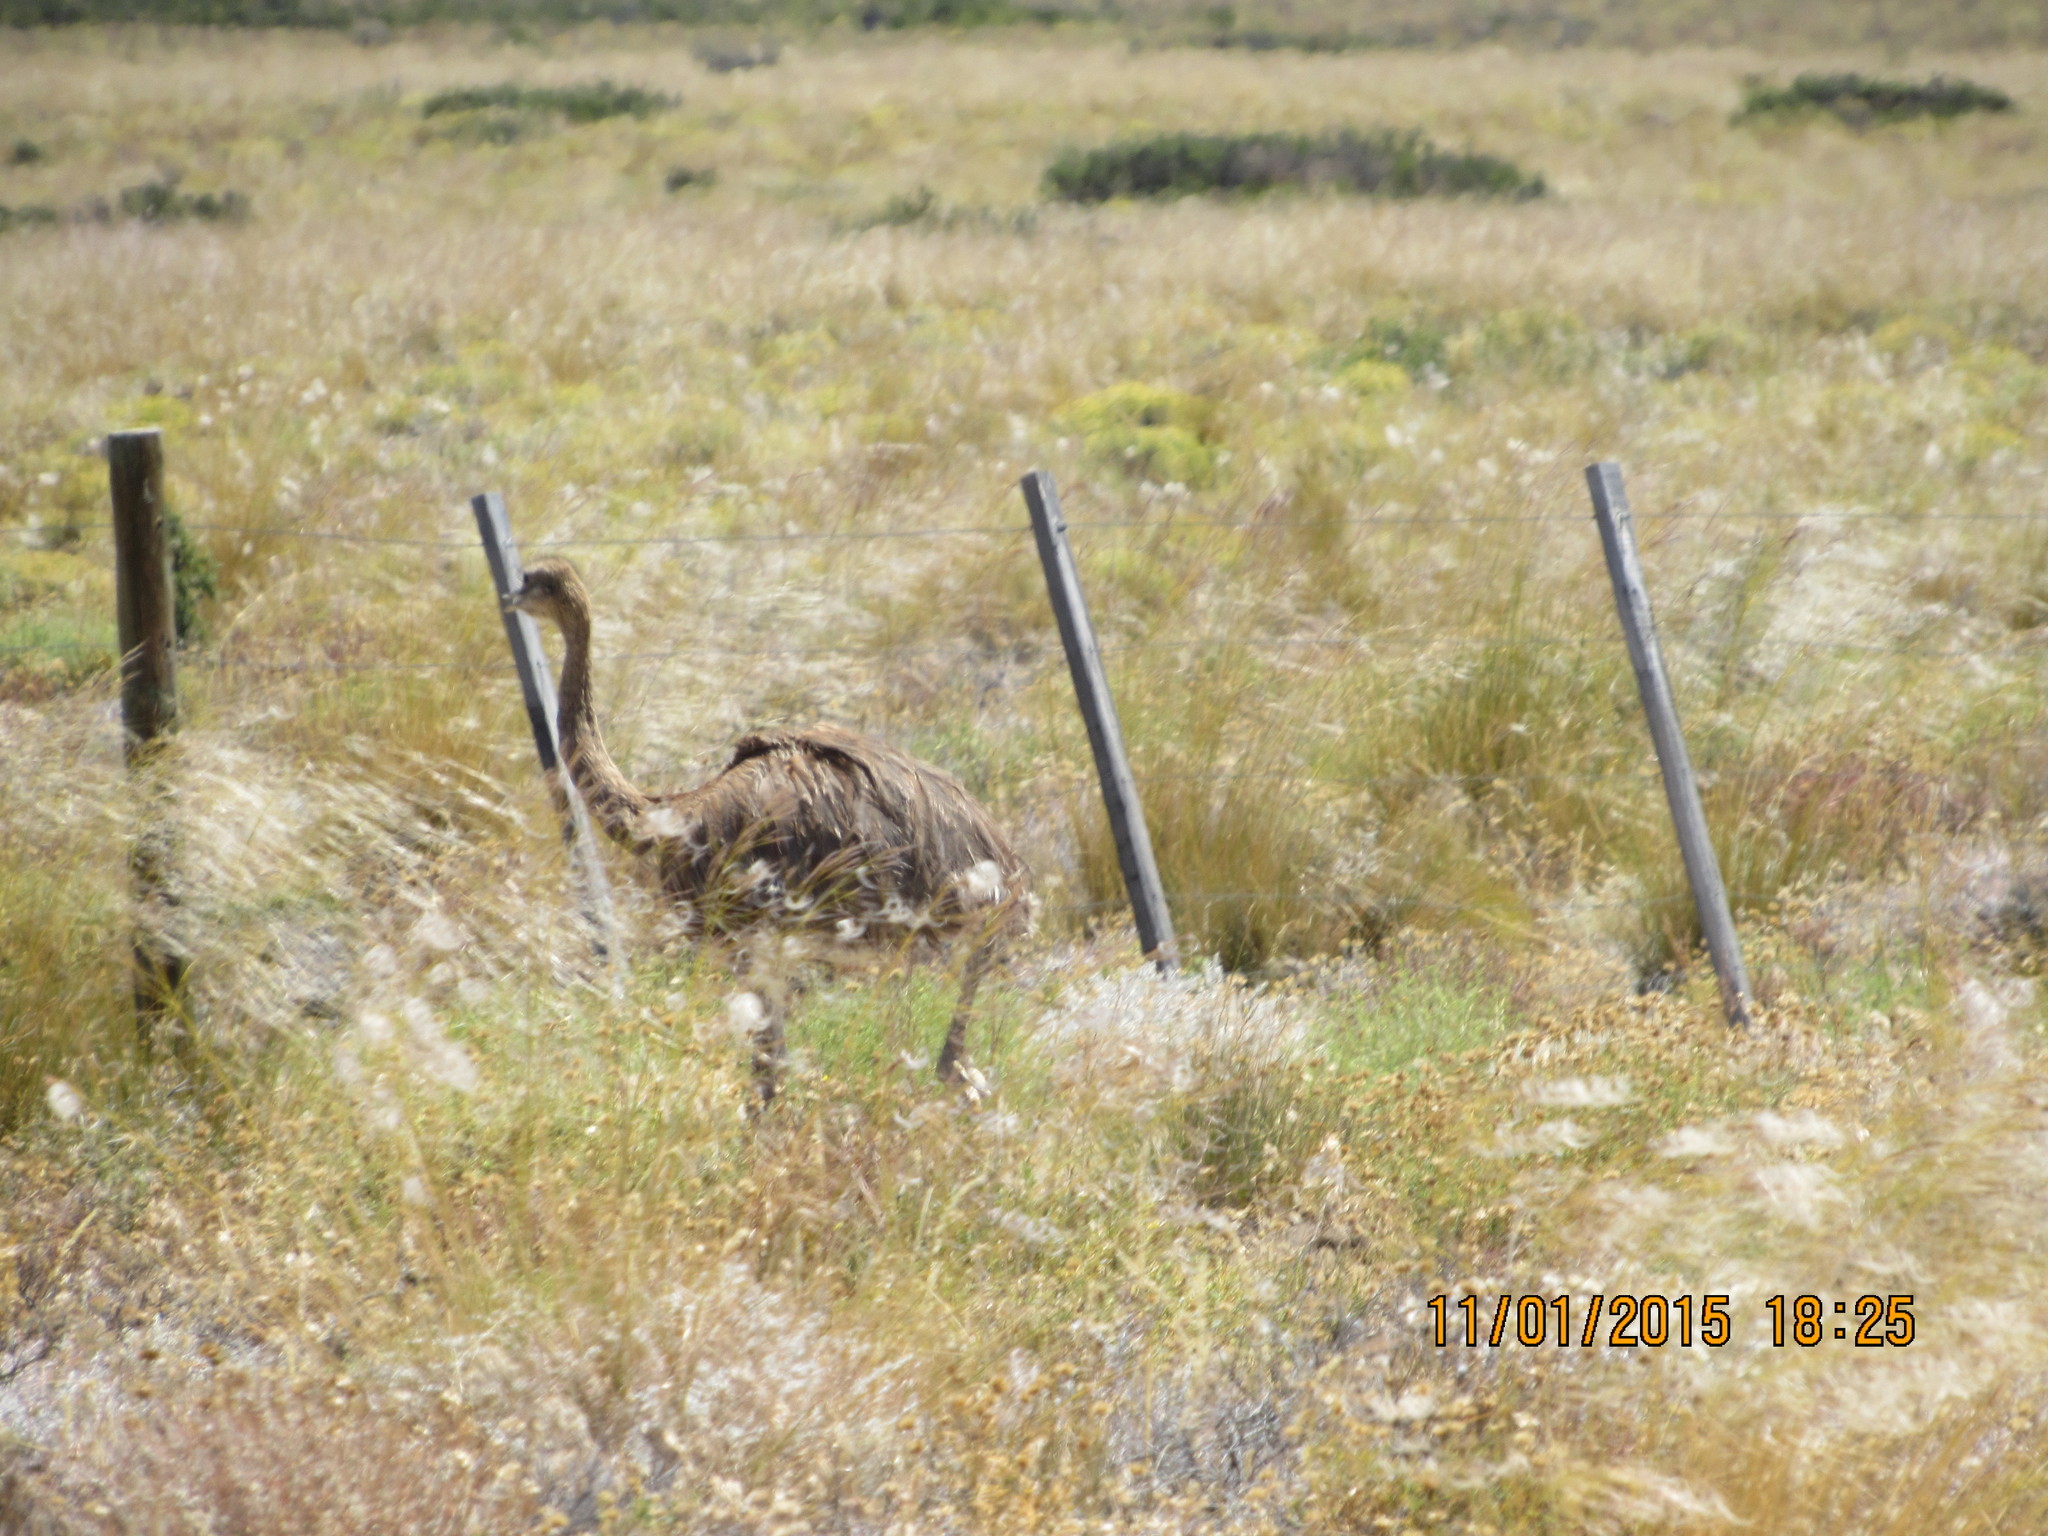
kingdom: Animalia
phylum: Chordata
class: Aves
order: Rheiformes
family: Rheidae
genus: Rhea
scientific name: Rhea pennata
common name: Lesser rhea
